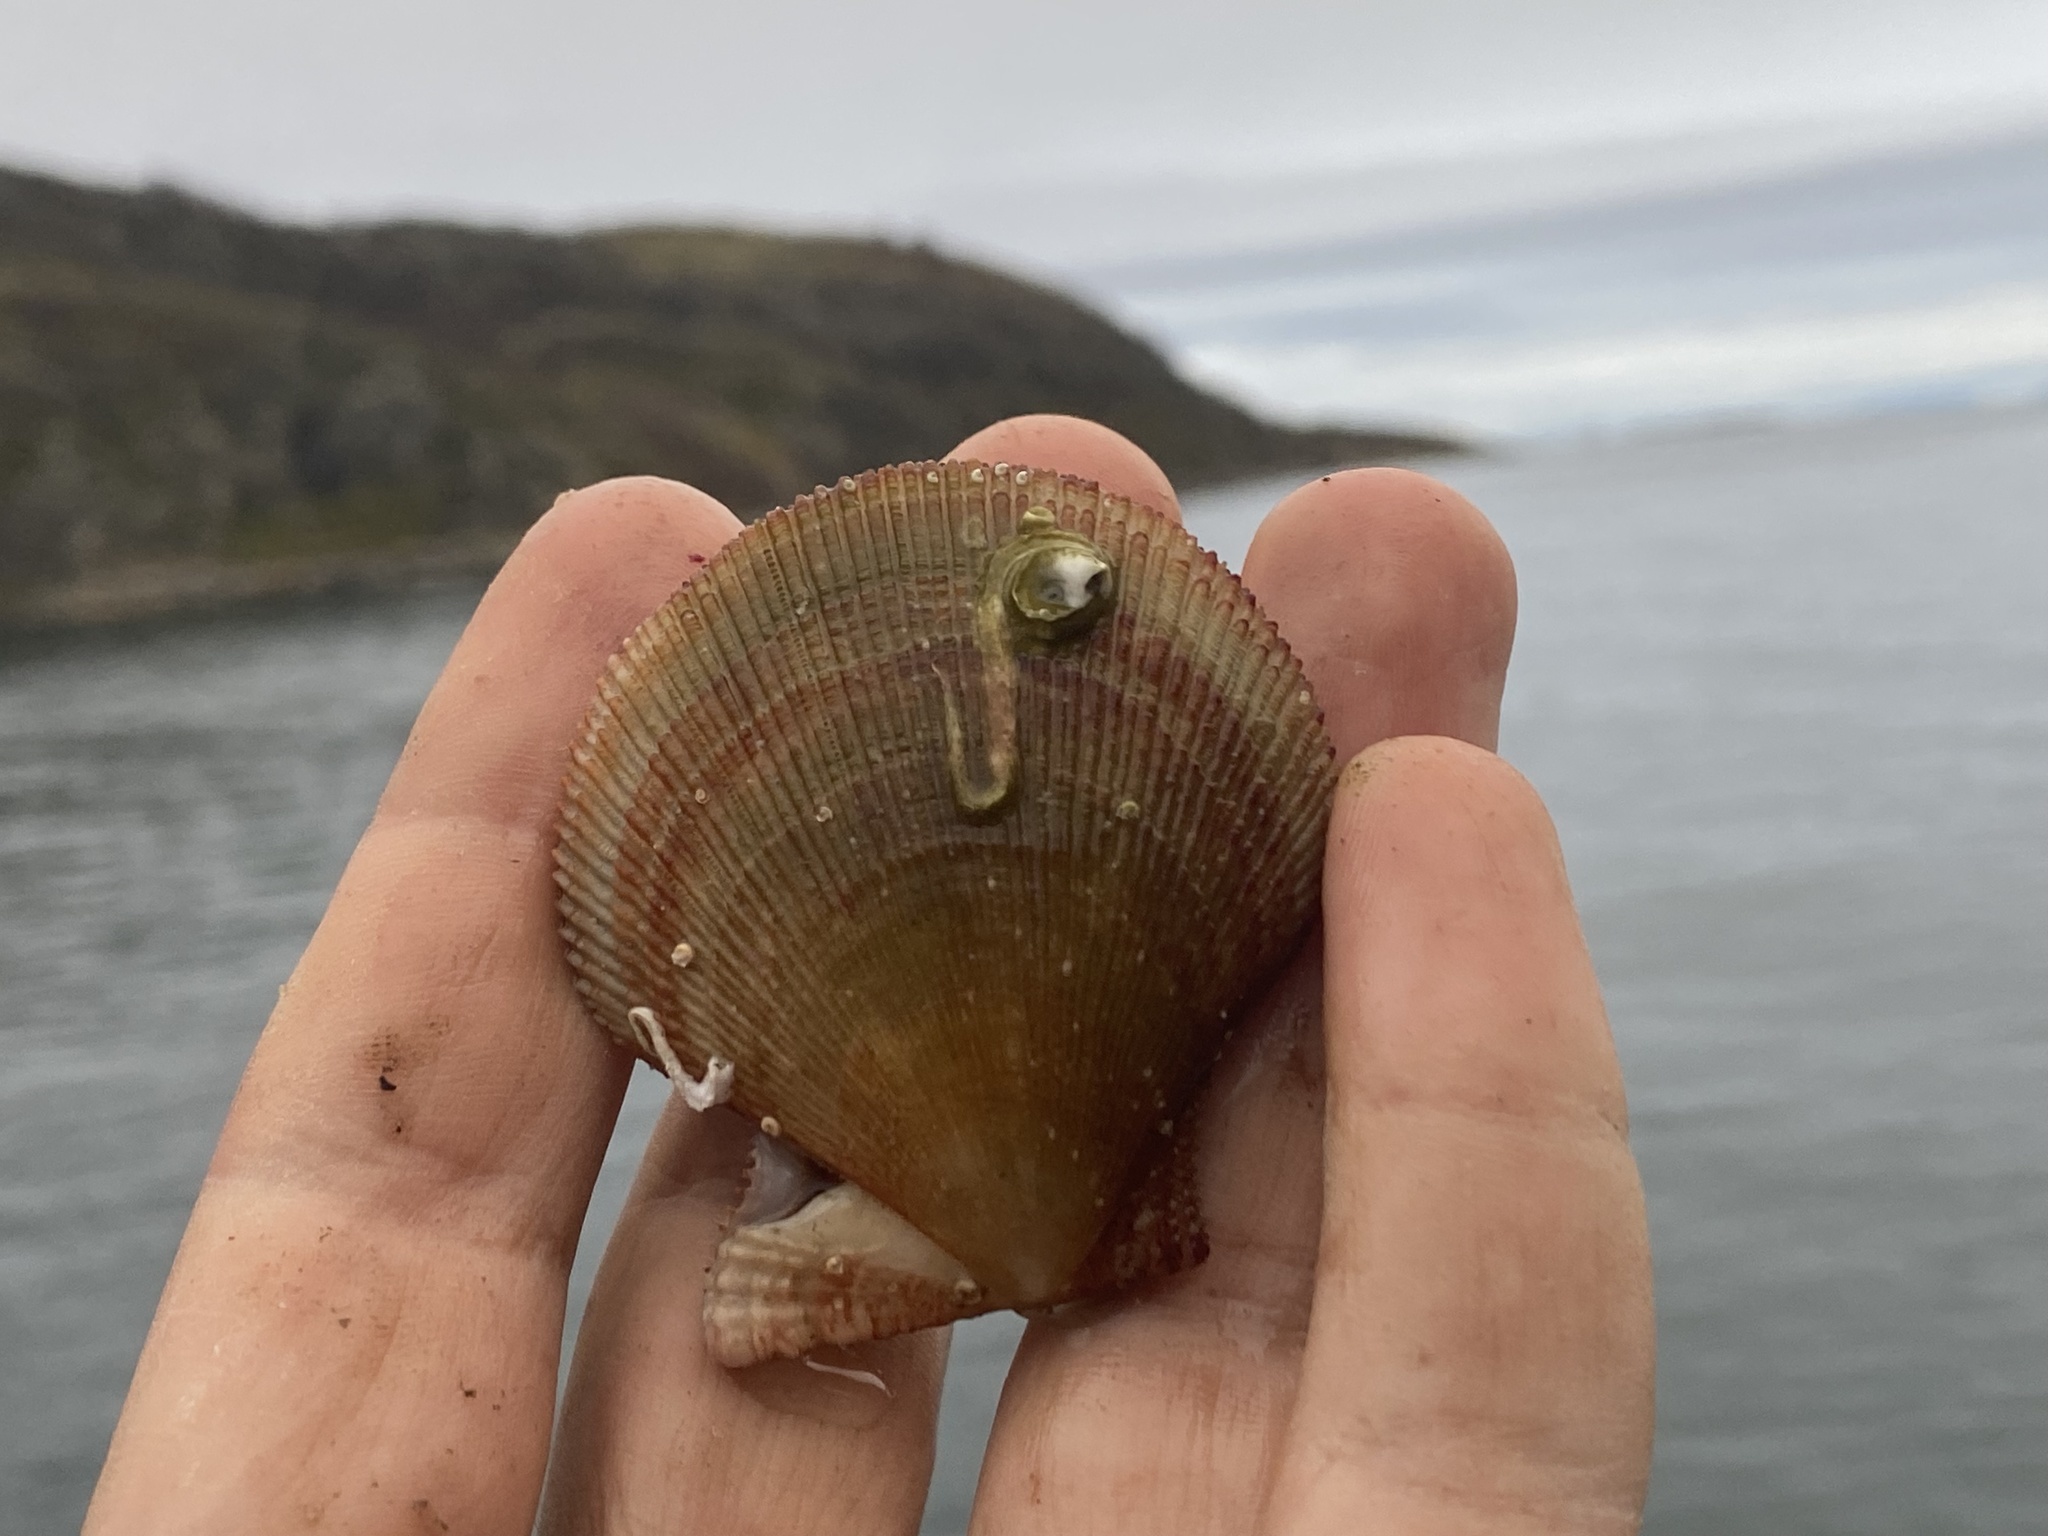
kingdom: Animalia
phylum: Mollusca
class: Bivalvia
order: Pectinida
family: Pectinidae
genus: Chlamys
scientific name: Chlamys islandica
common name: Iceland scallop
